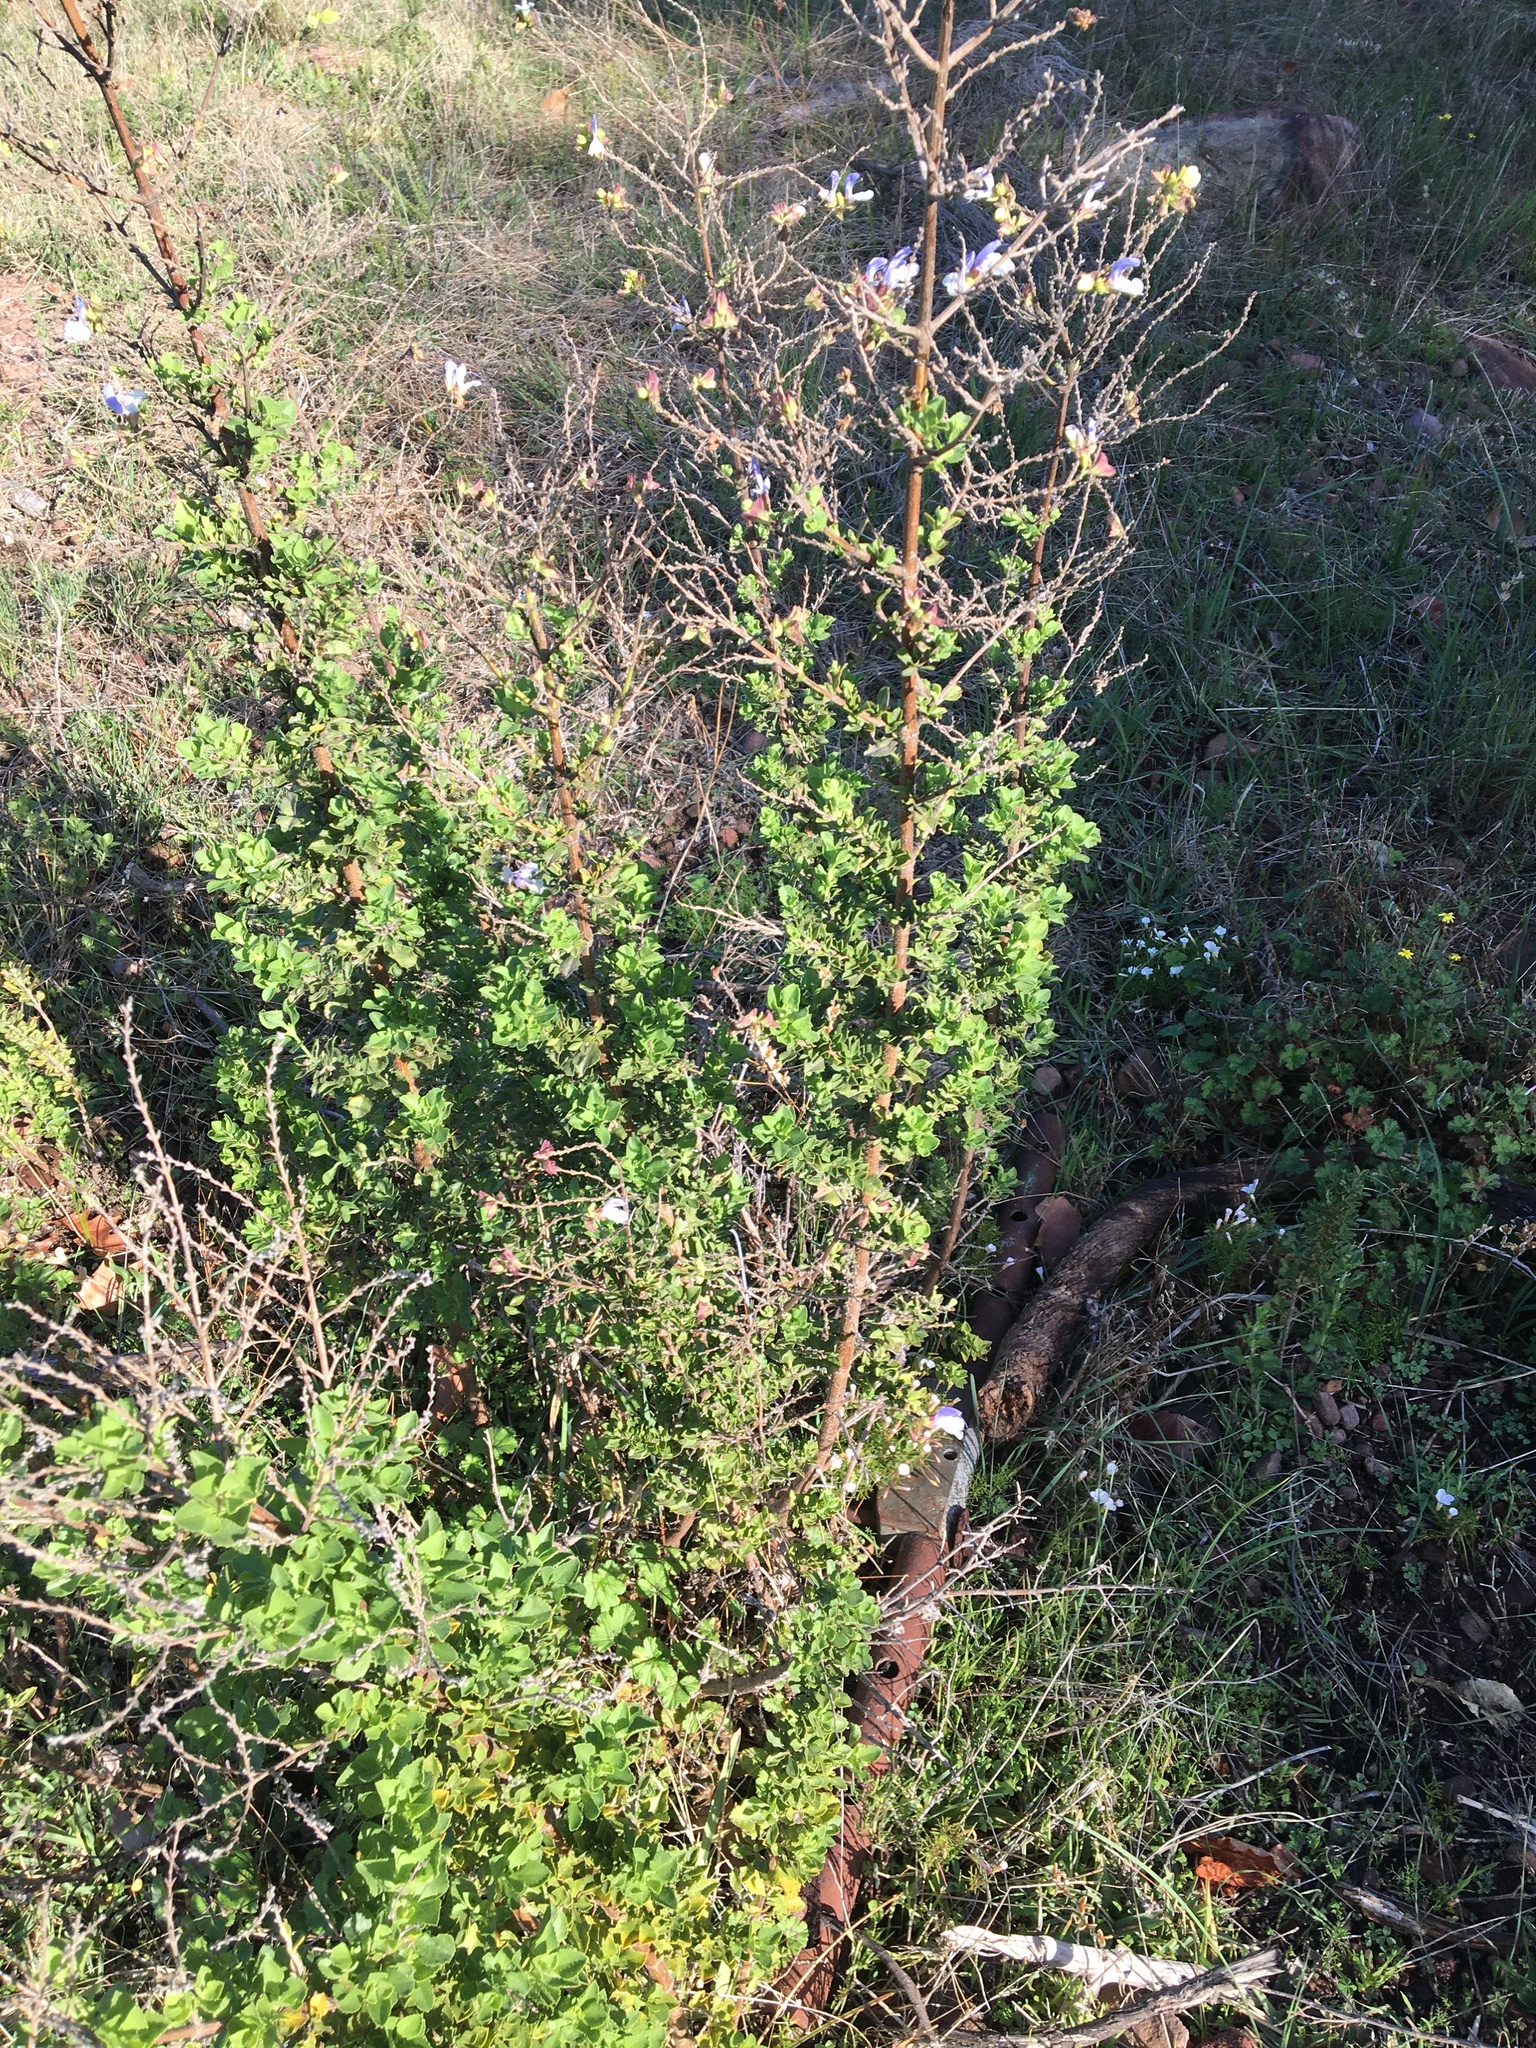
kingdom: Plantae
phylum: Tracheophyta
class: Magnoliopsida
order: Lamiales
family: Lamiaceae
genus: Salvia
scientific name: Salvia chamelaeagnea
